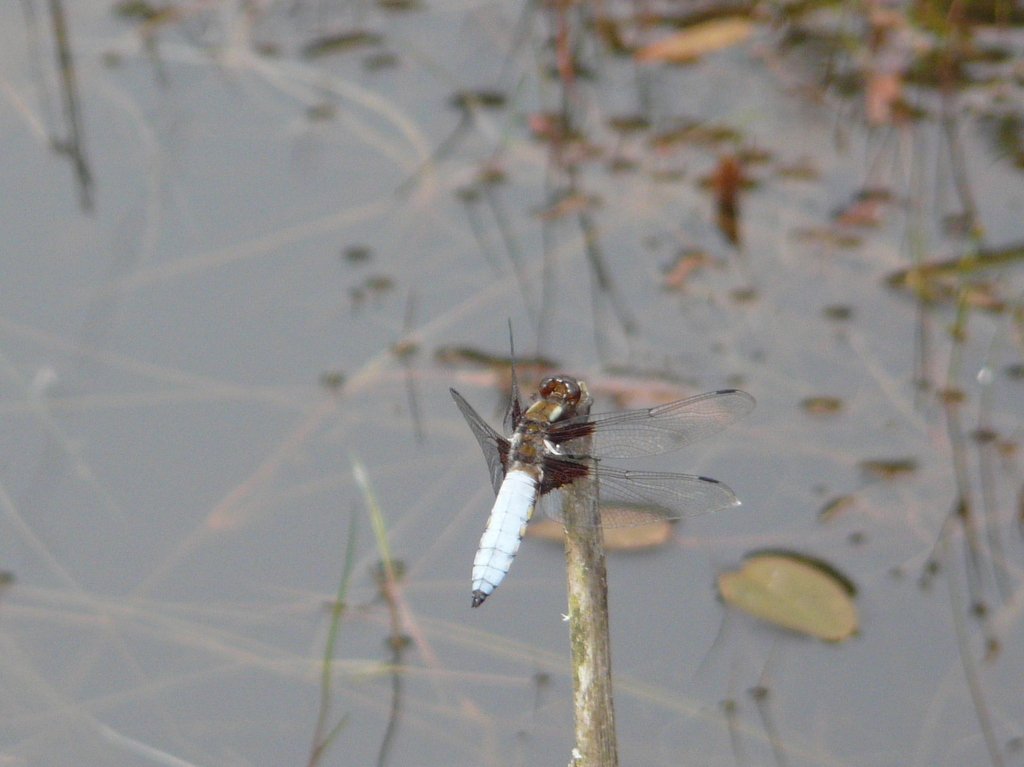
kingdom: Animalia
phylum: Arthropoda
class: Insecta
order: Odonata
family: Libellulidae
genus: Libellula
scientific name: Libellula depressa
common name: Broad-bodied chaser
